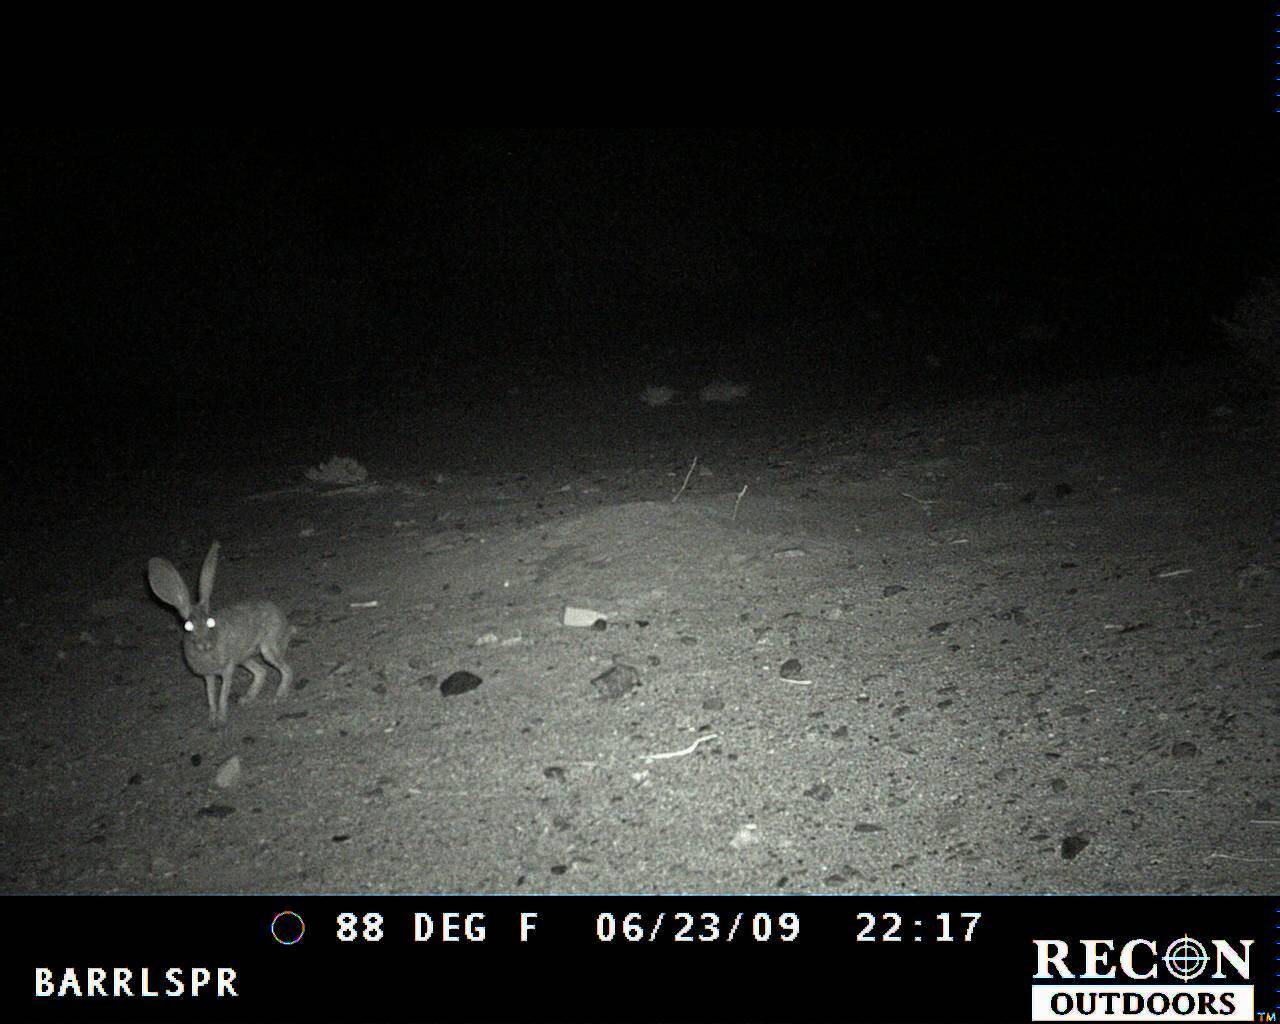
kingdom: Animalia
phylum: Chordata
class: Mammalia
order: Lagomorpha
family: Leporidae
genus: Lepus
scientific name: Lepus californicus
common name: Black-tailed jackrabbit
